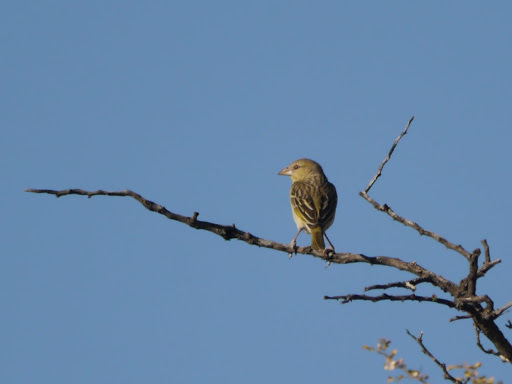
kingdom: Animalia
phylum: Chordata
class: Aves
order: Passeriformes
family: Ploceidae
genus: Ploceus
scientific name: Ploceus velatus
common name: Southern masked weaver
